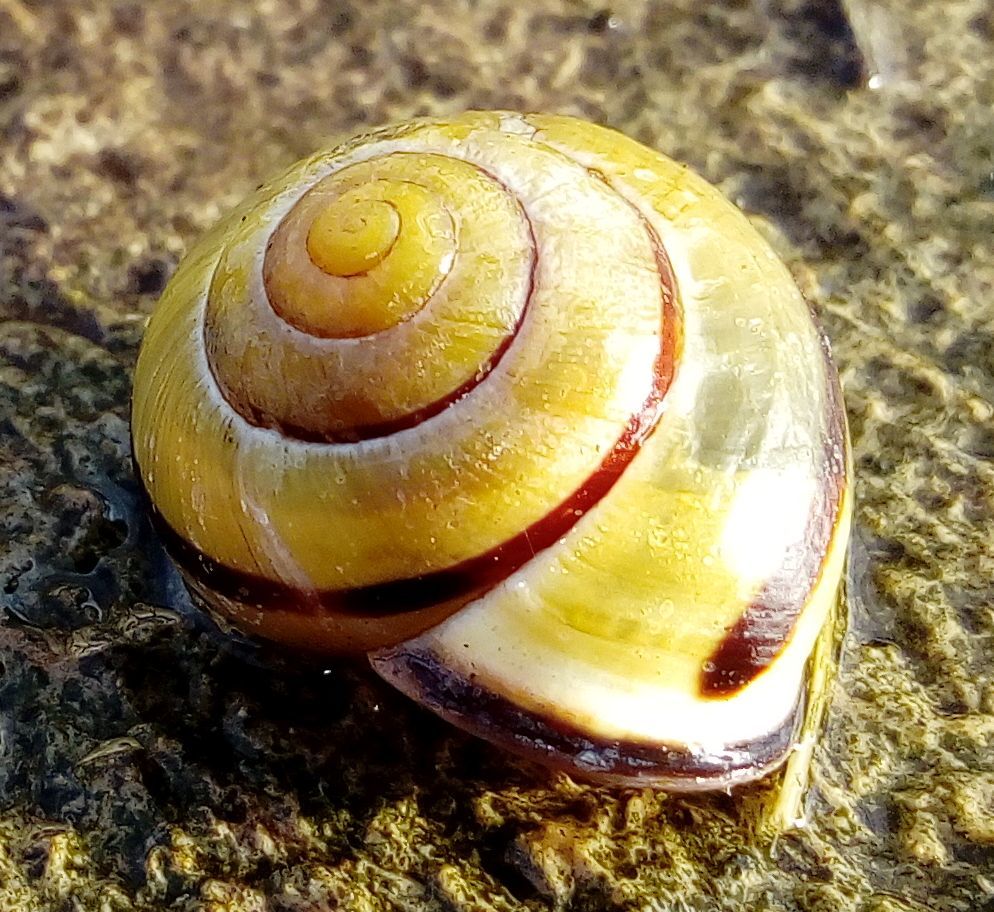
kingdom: Animalia
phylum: Mollusca
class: Gastropoda
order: Stylommatophora
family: Helicidae
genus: Cepaea
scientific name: Cepaea nemoralis
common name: Grovesnail
